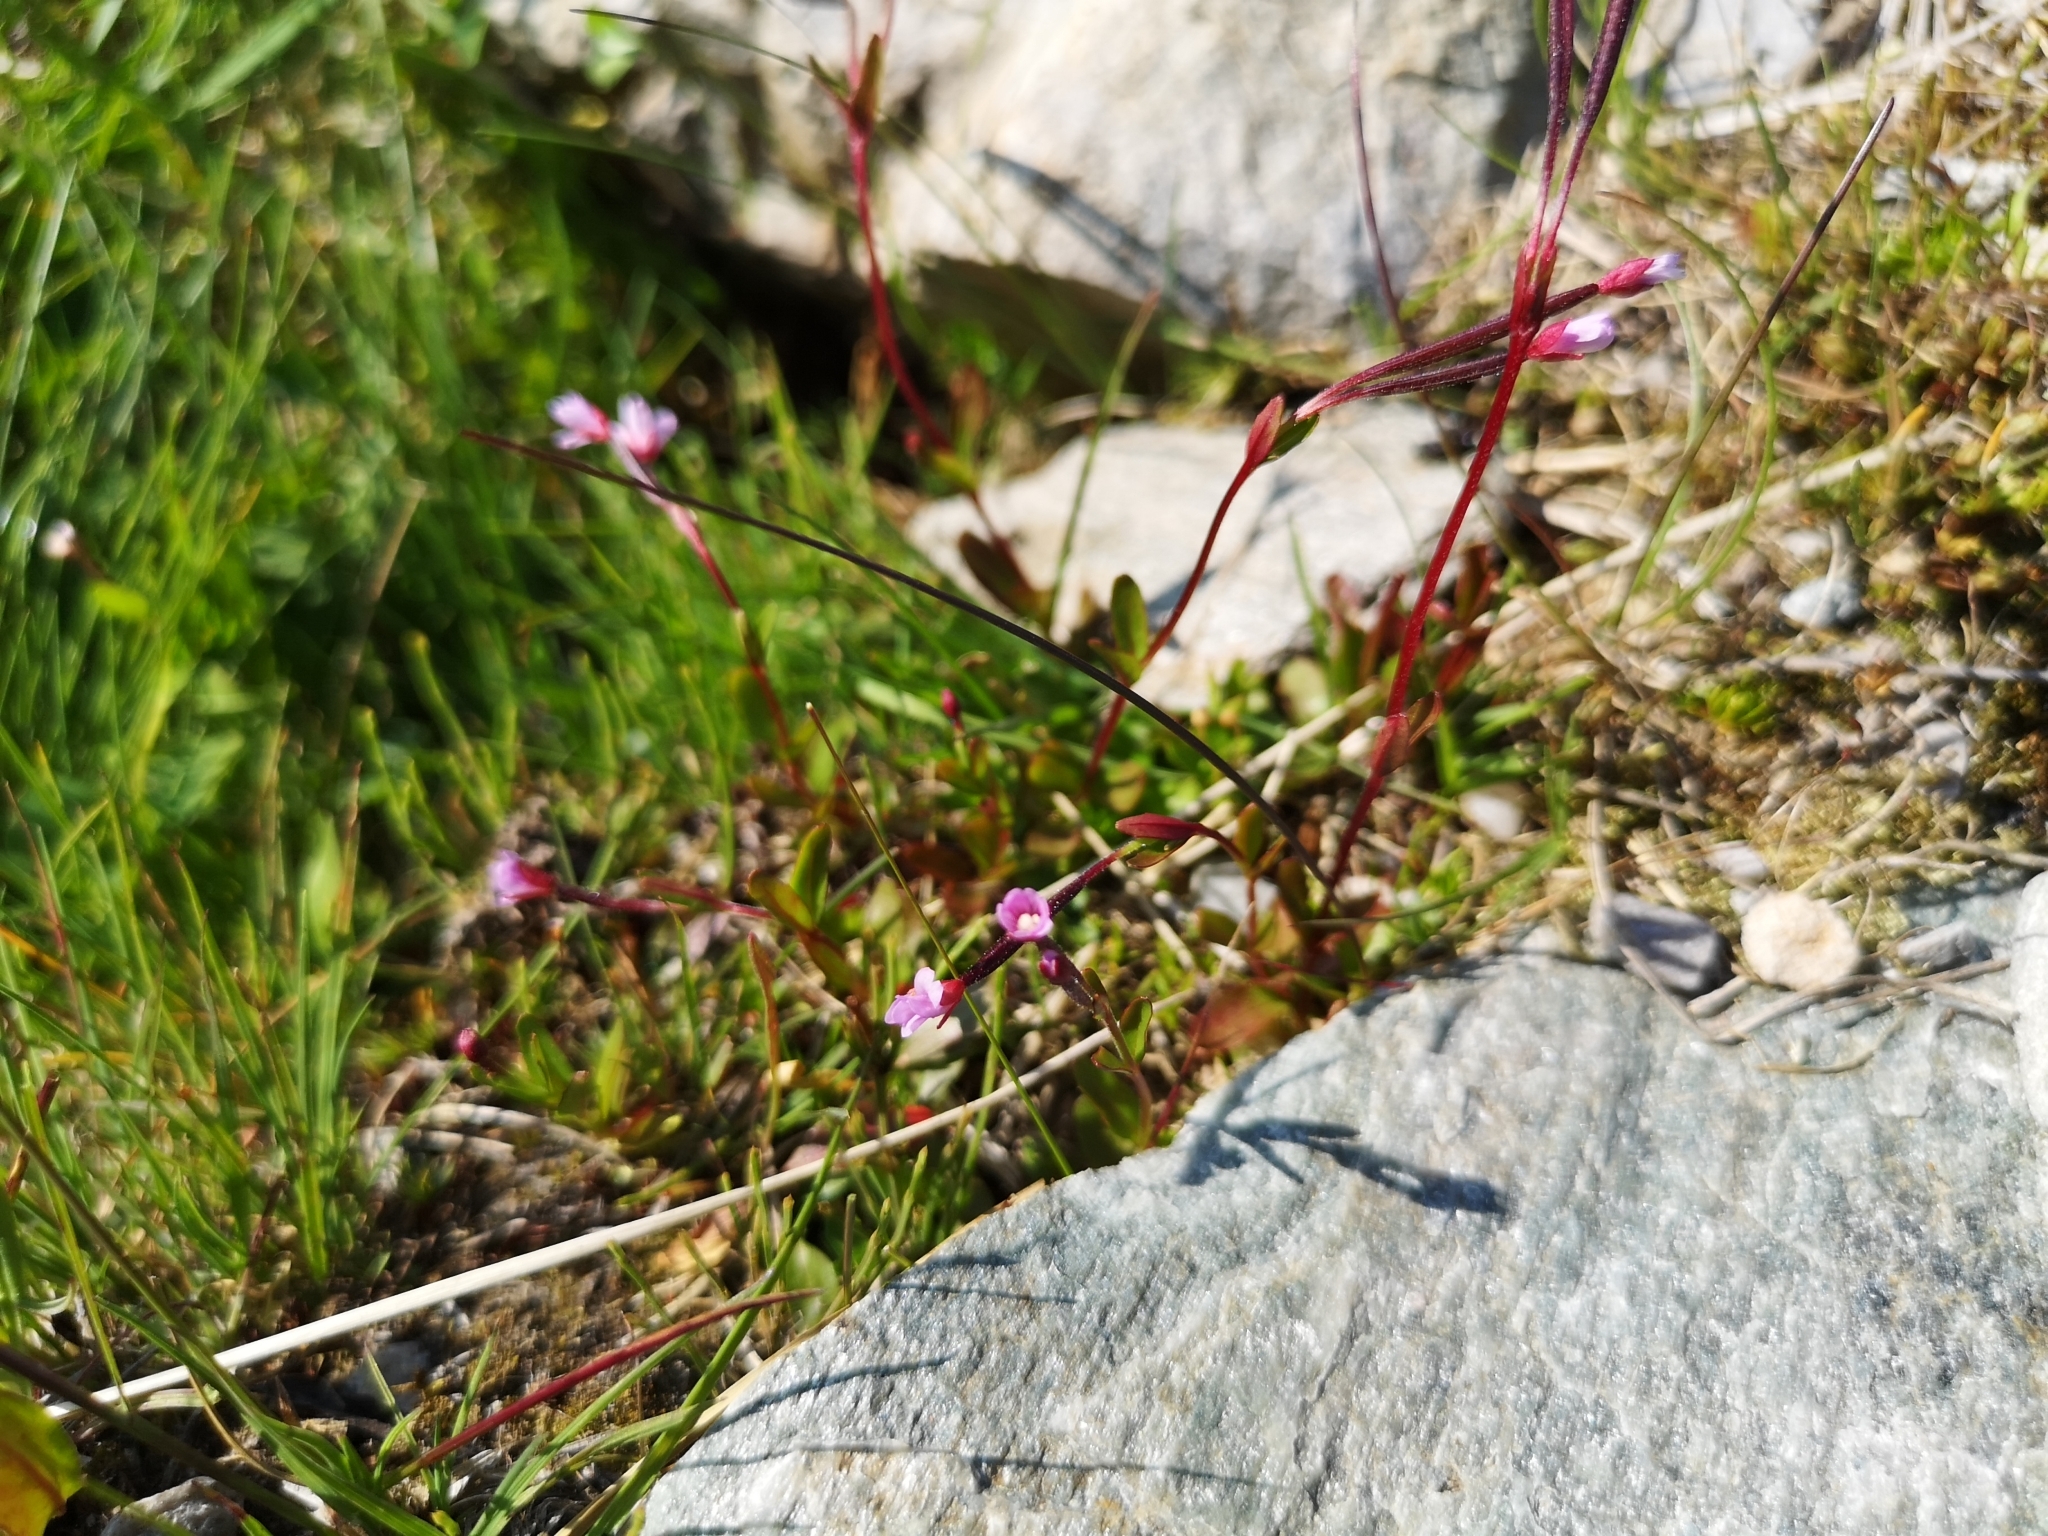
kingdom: Plantae
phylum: Tracheophyta
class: Magnoliopsida
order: Myrtales
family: Onagraceae
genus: Epilobium
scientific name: Epilobium anagallidifolium
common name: Alpine willowherb
